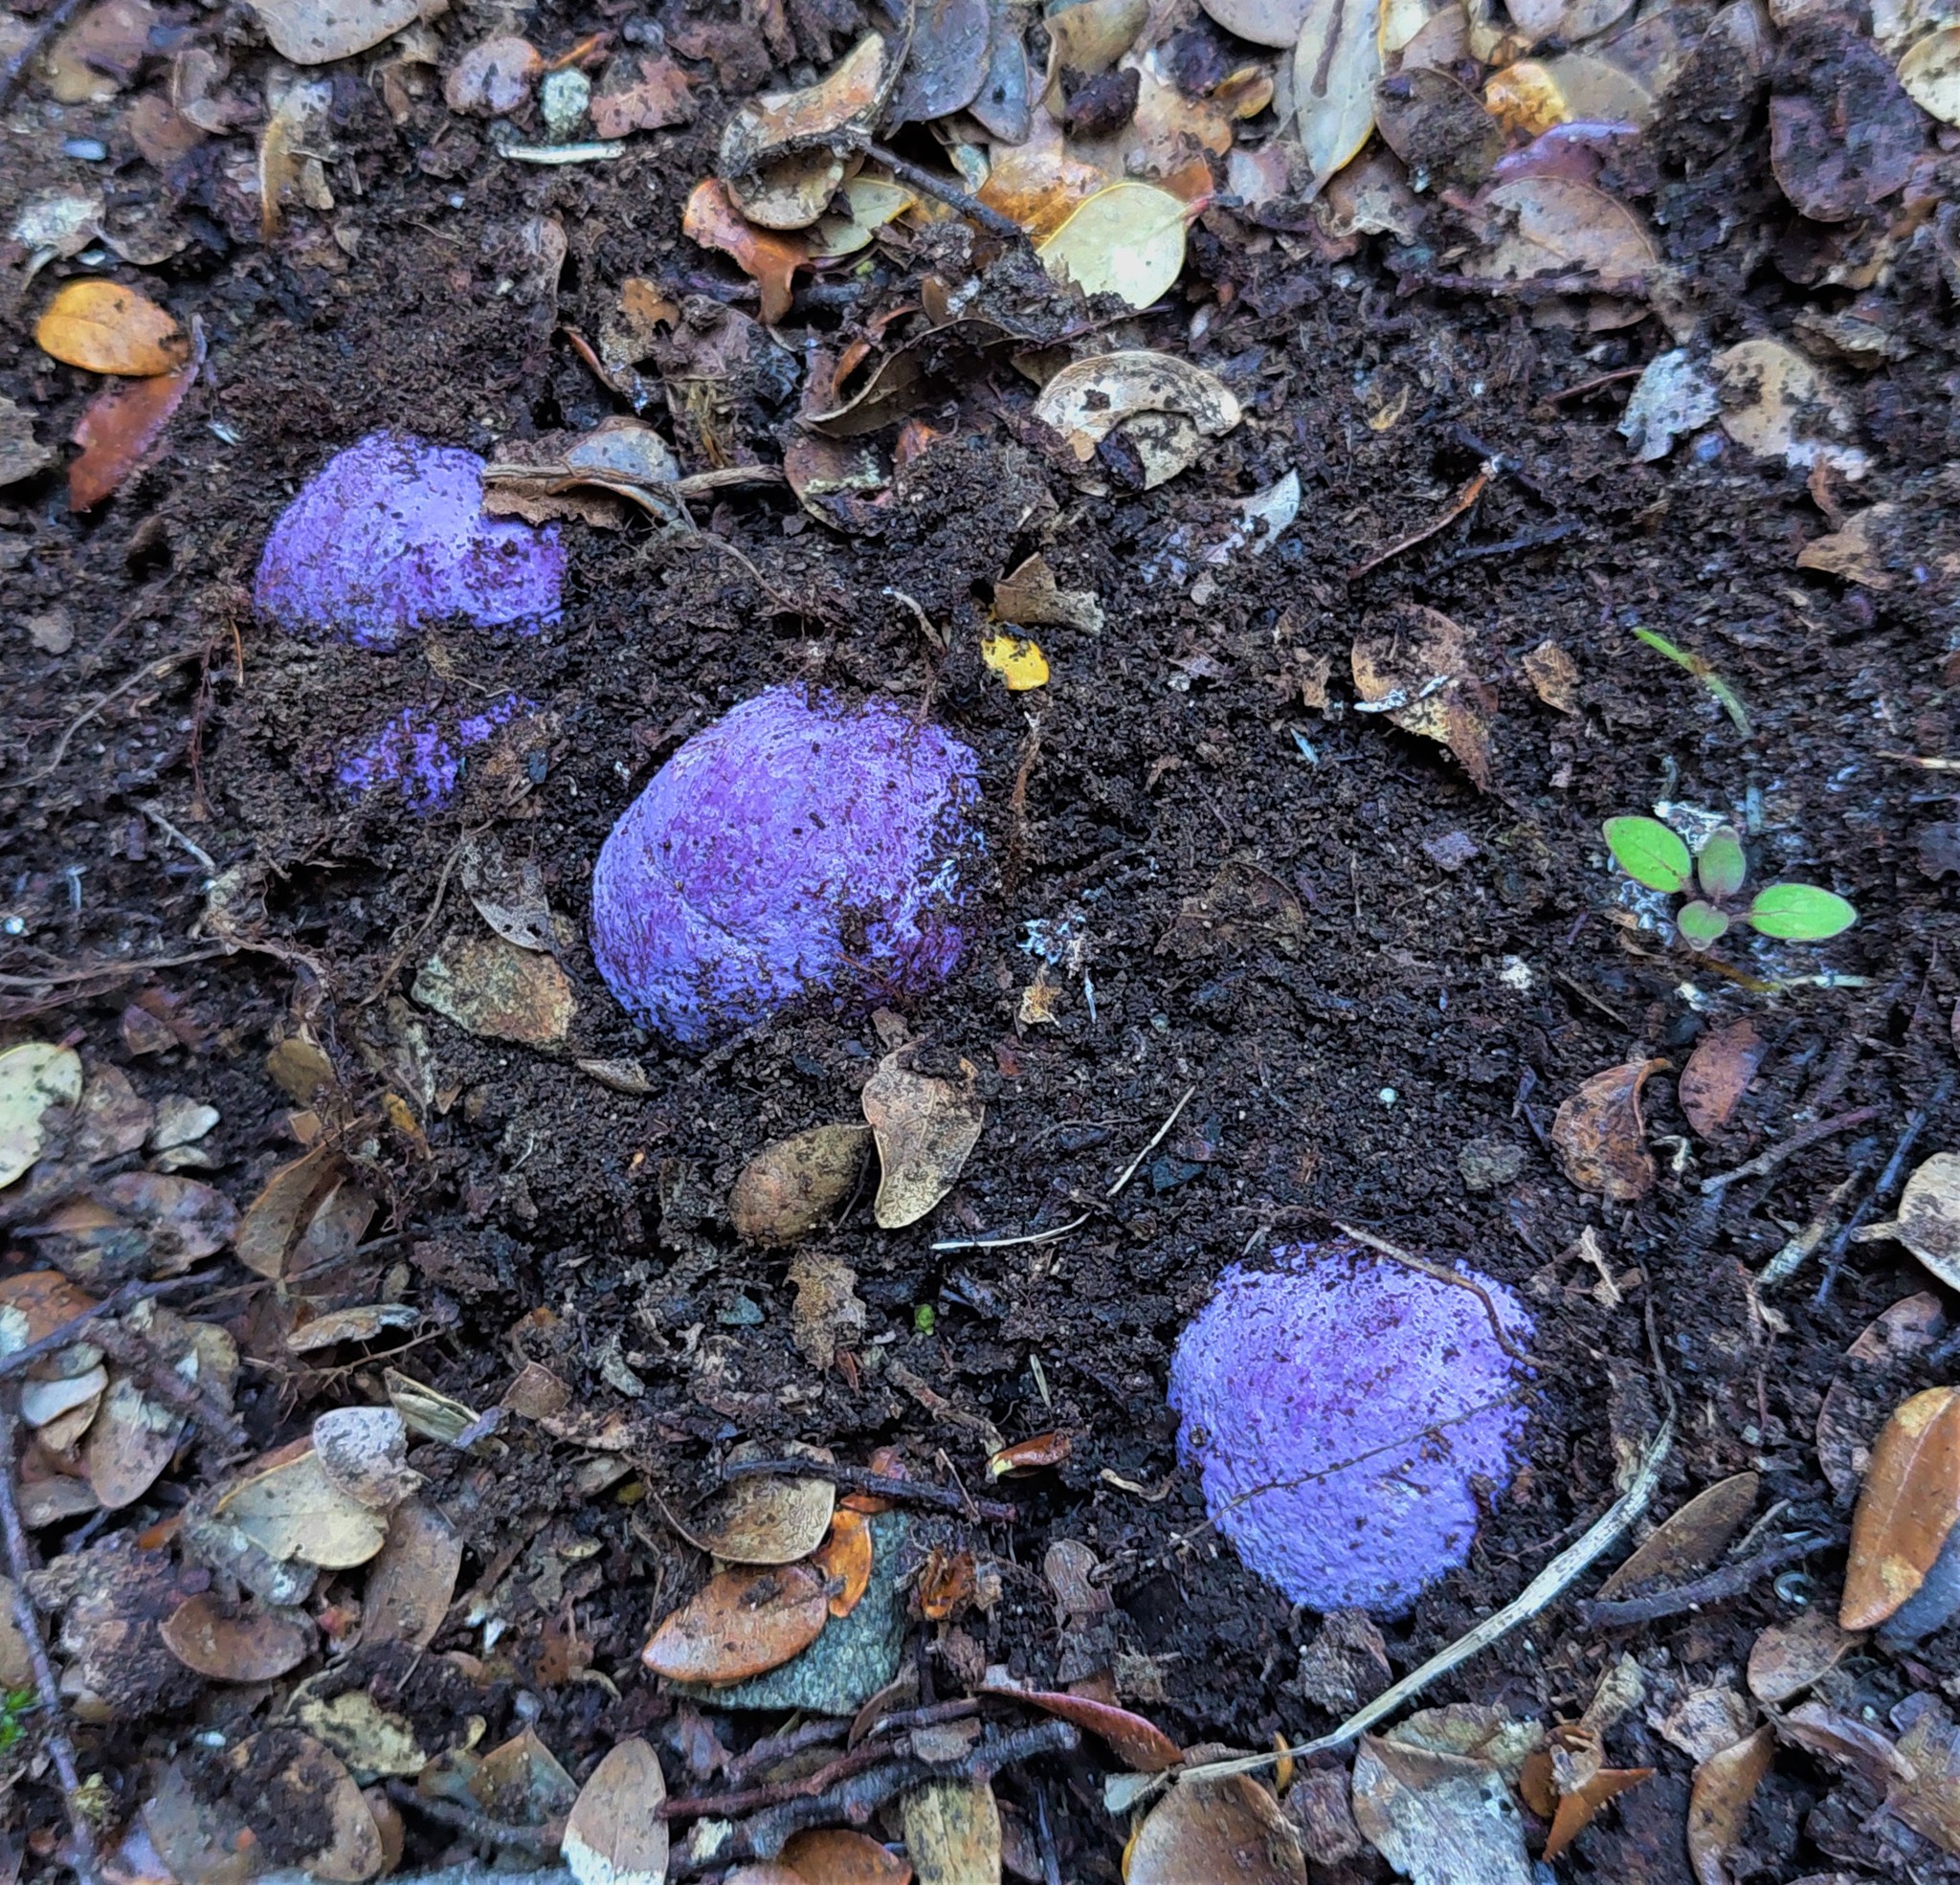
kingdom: Fungi
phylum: Basidiomycota
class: Agaricomycetes
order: Hysterangiales
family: Gallaceaceae
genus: Gallacea
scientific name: Gallacea scleroderma
